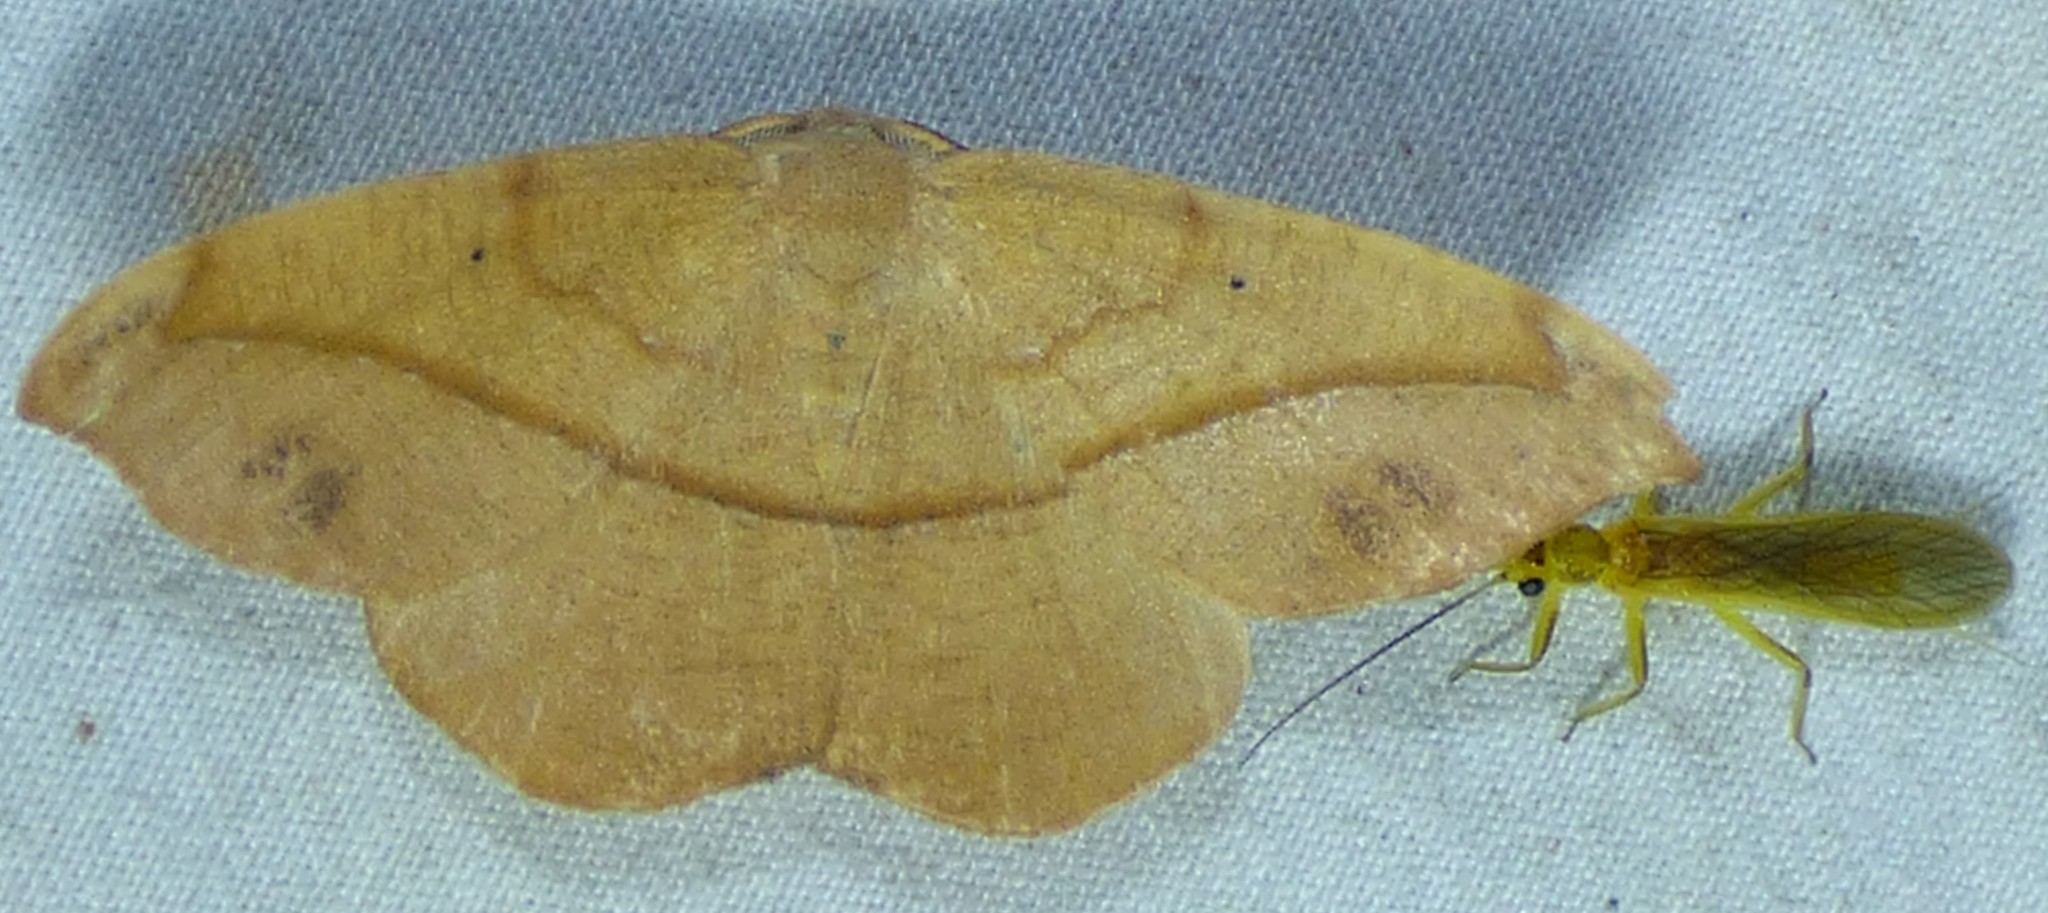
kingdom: Animalia
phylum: Arthropoda
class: Insecta
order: Lepidoptera
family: Geometridae
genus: Patalene
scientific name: Patalene olyzonaria
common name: Juniper geometer moth
